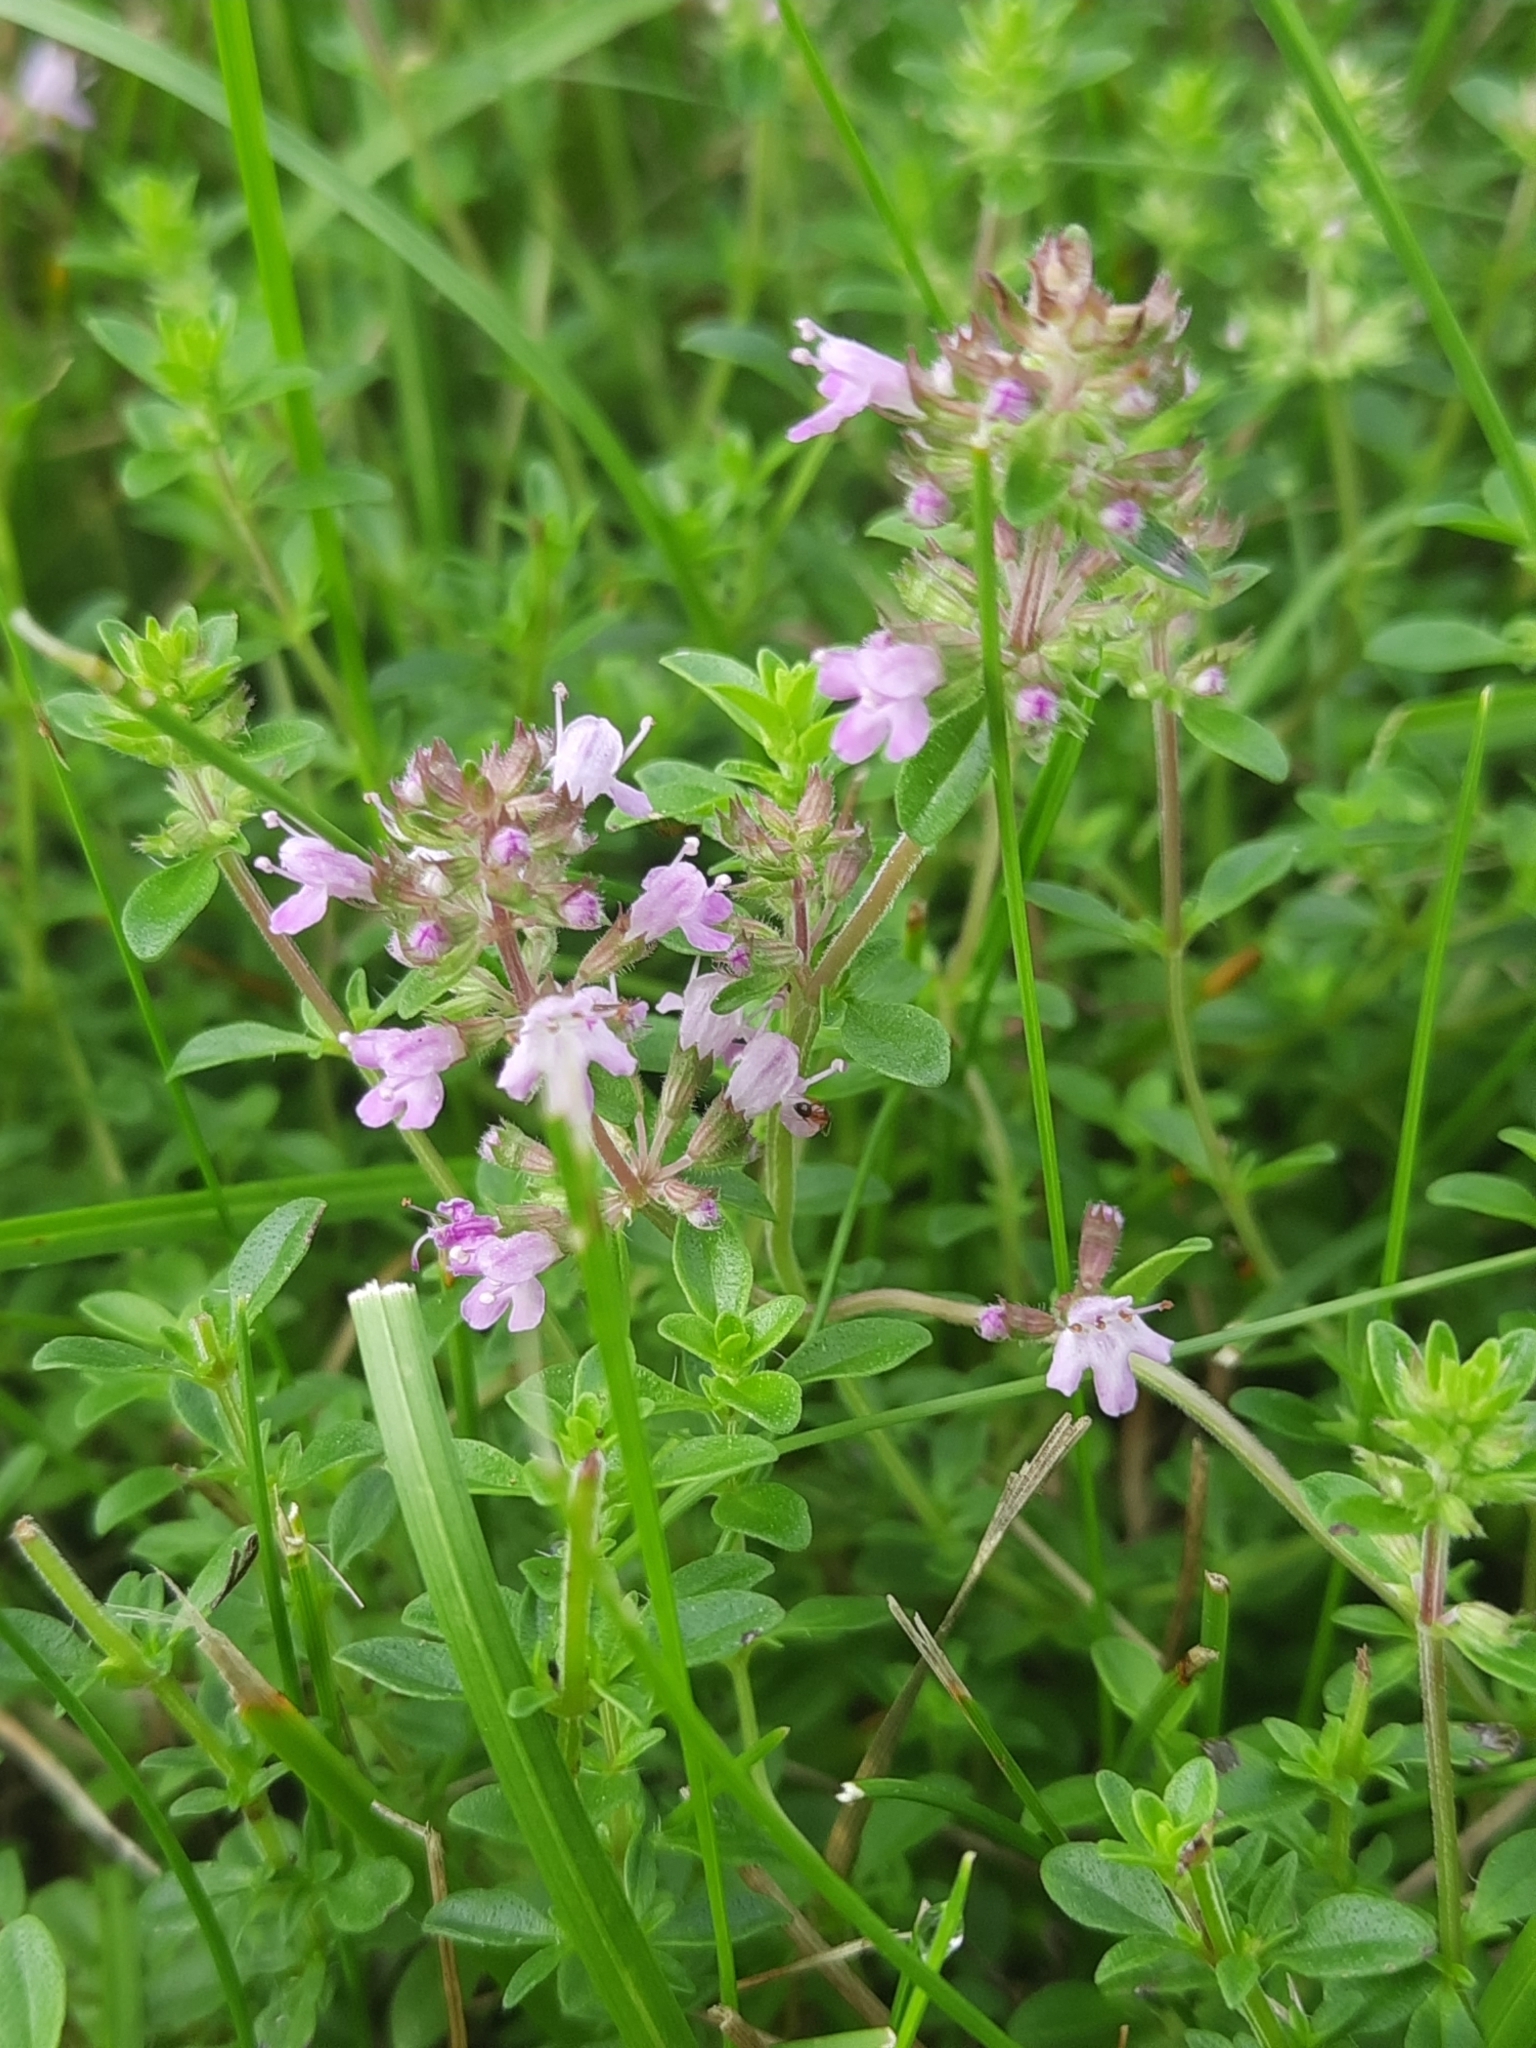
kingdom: Plantae
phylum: Tracheophyta
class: Magnoliopsida
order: Lamiales
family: Lamiaceae
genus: Thymus
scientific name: Thymus pulegioides
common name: Large thyme
